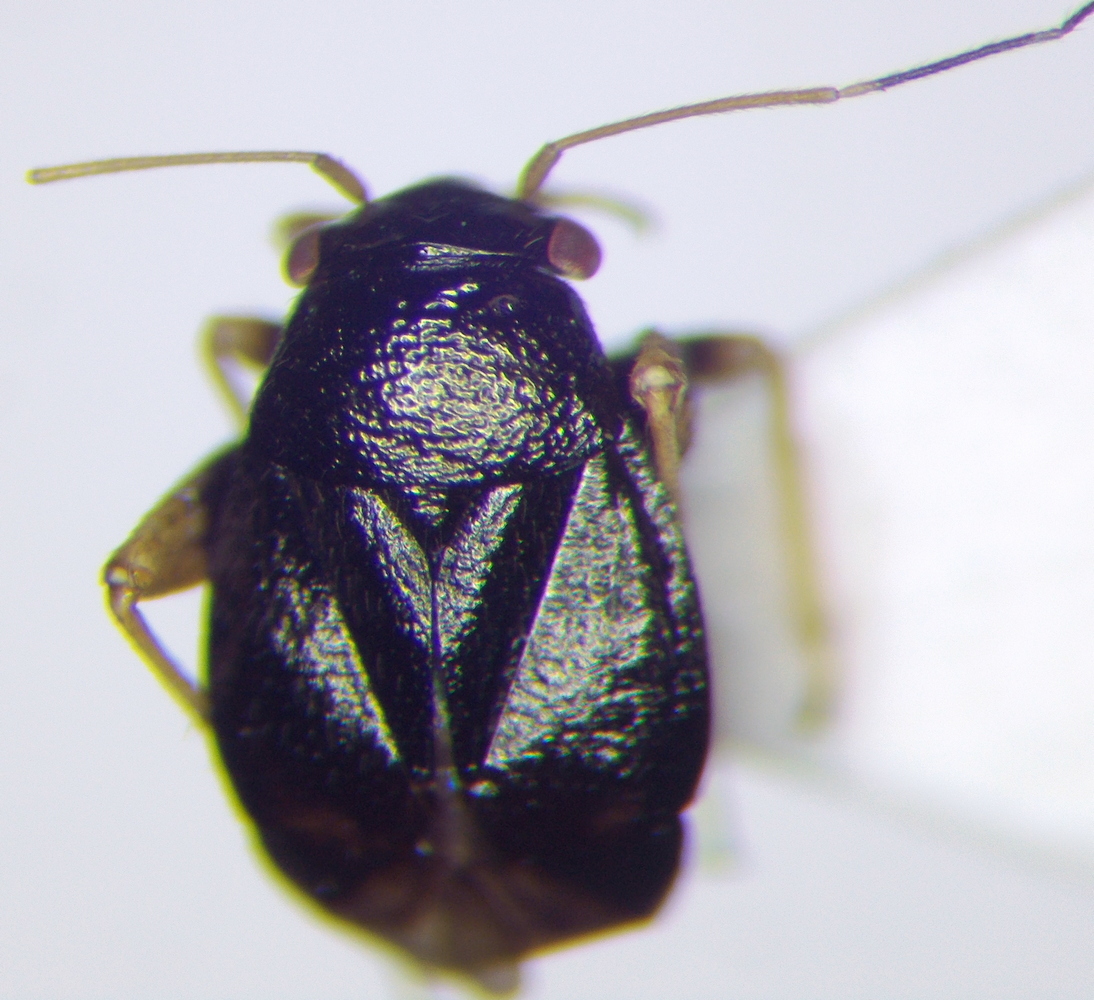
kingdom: Animalia
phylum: Arthropoda
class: Insecta
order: Hemiptera
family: Miridae
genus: Halticus
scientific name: Halticus pusillus
